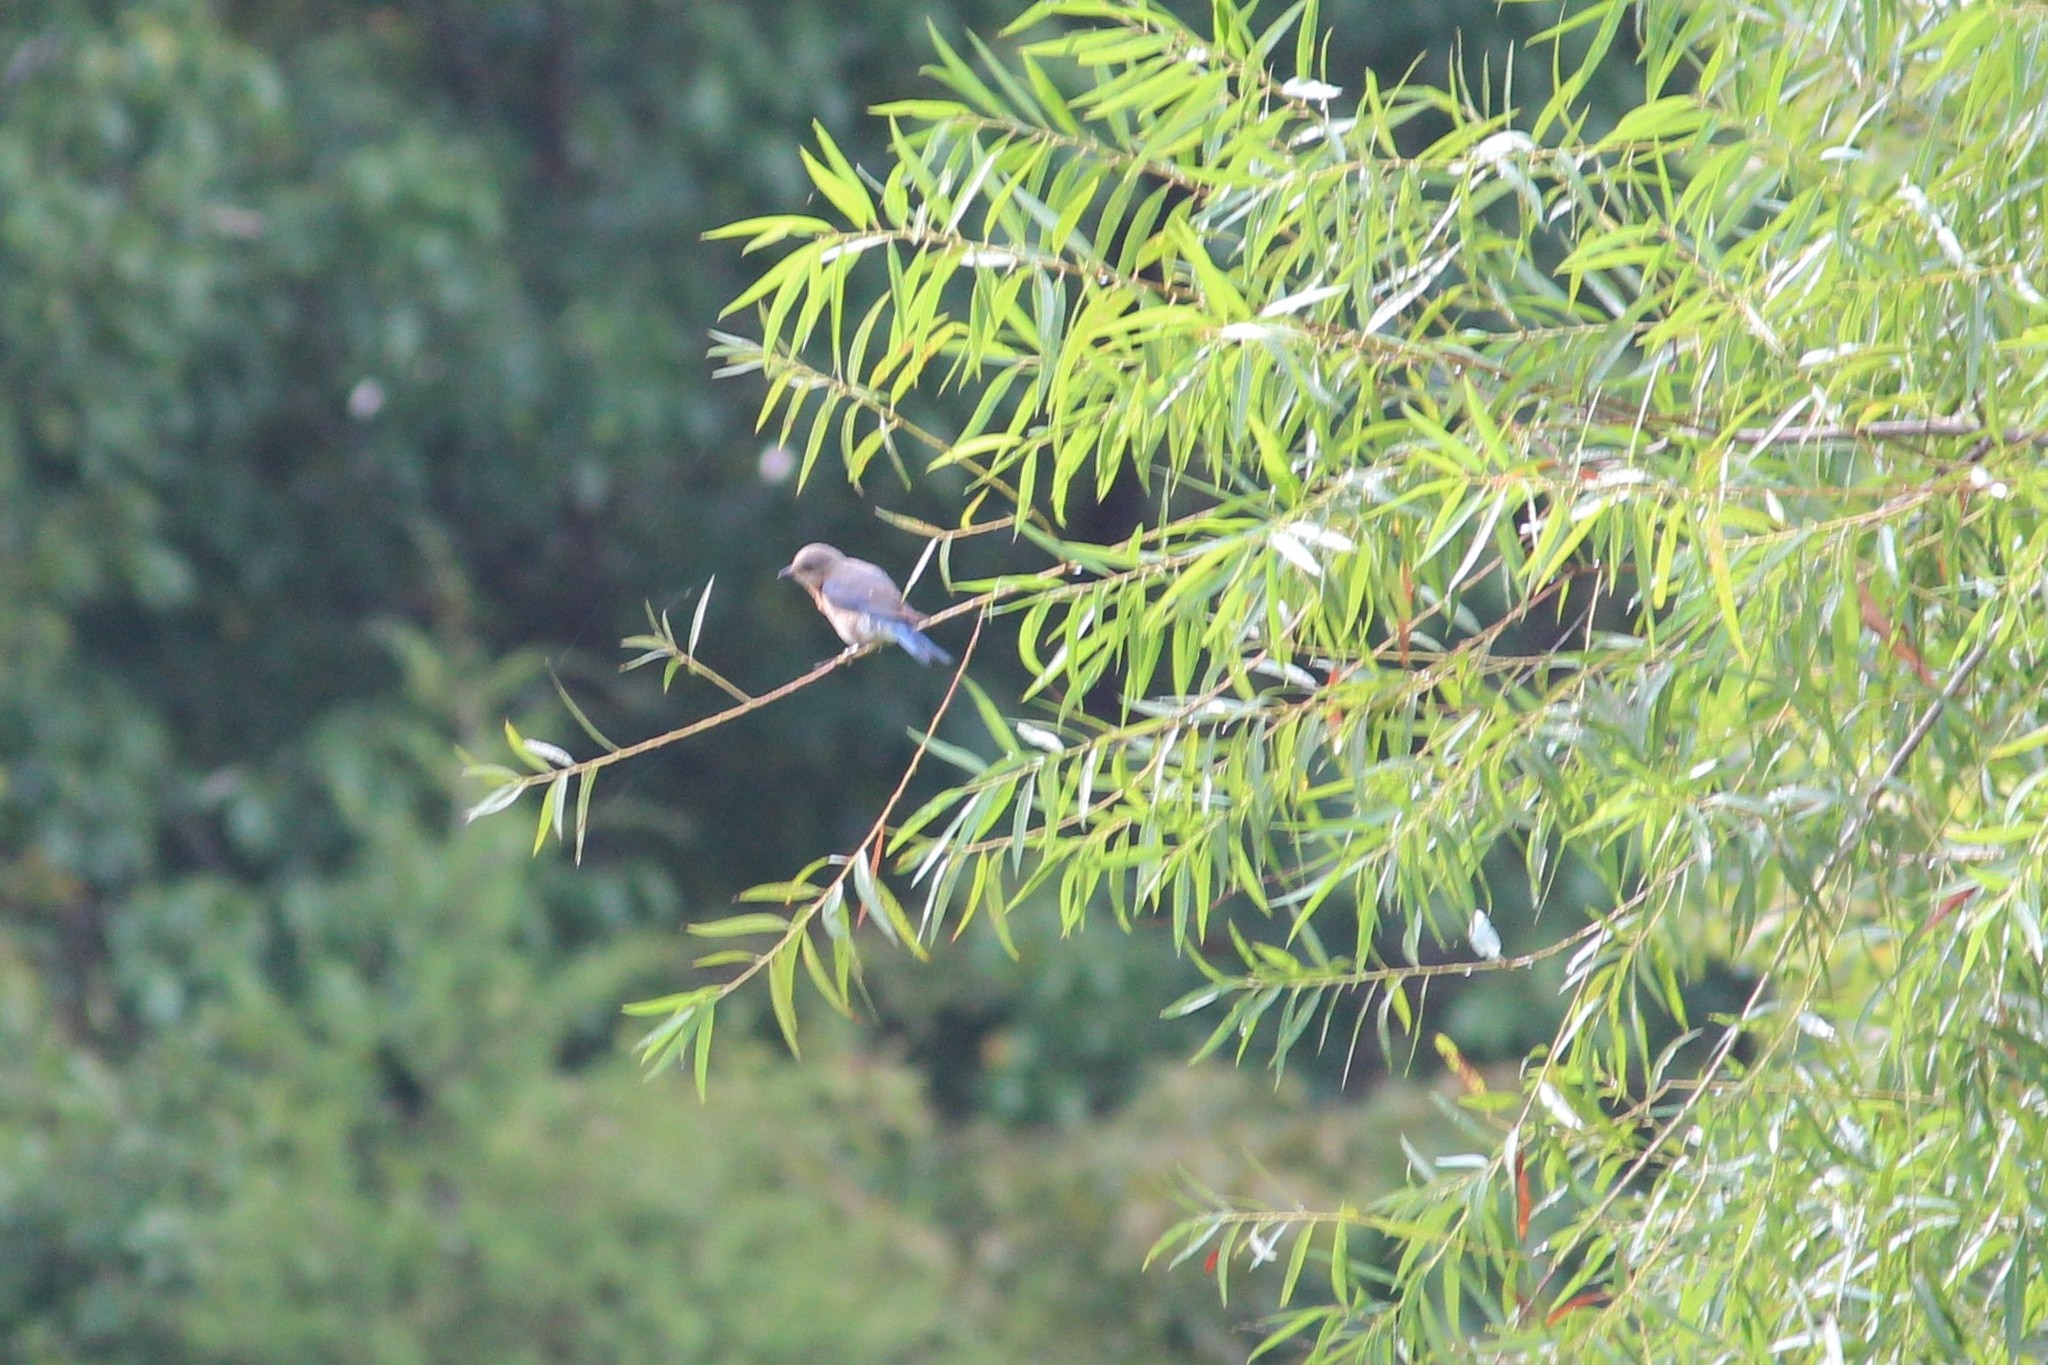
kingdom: Animalia
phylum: Chordata
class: Aves
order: Passeriformes
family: Turdidae
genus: Sialia
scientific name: Sialia sialis
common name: Eastern bluebird
